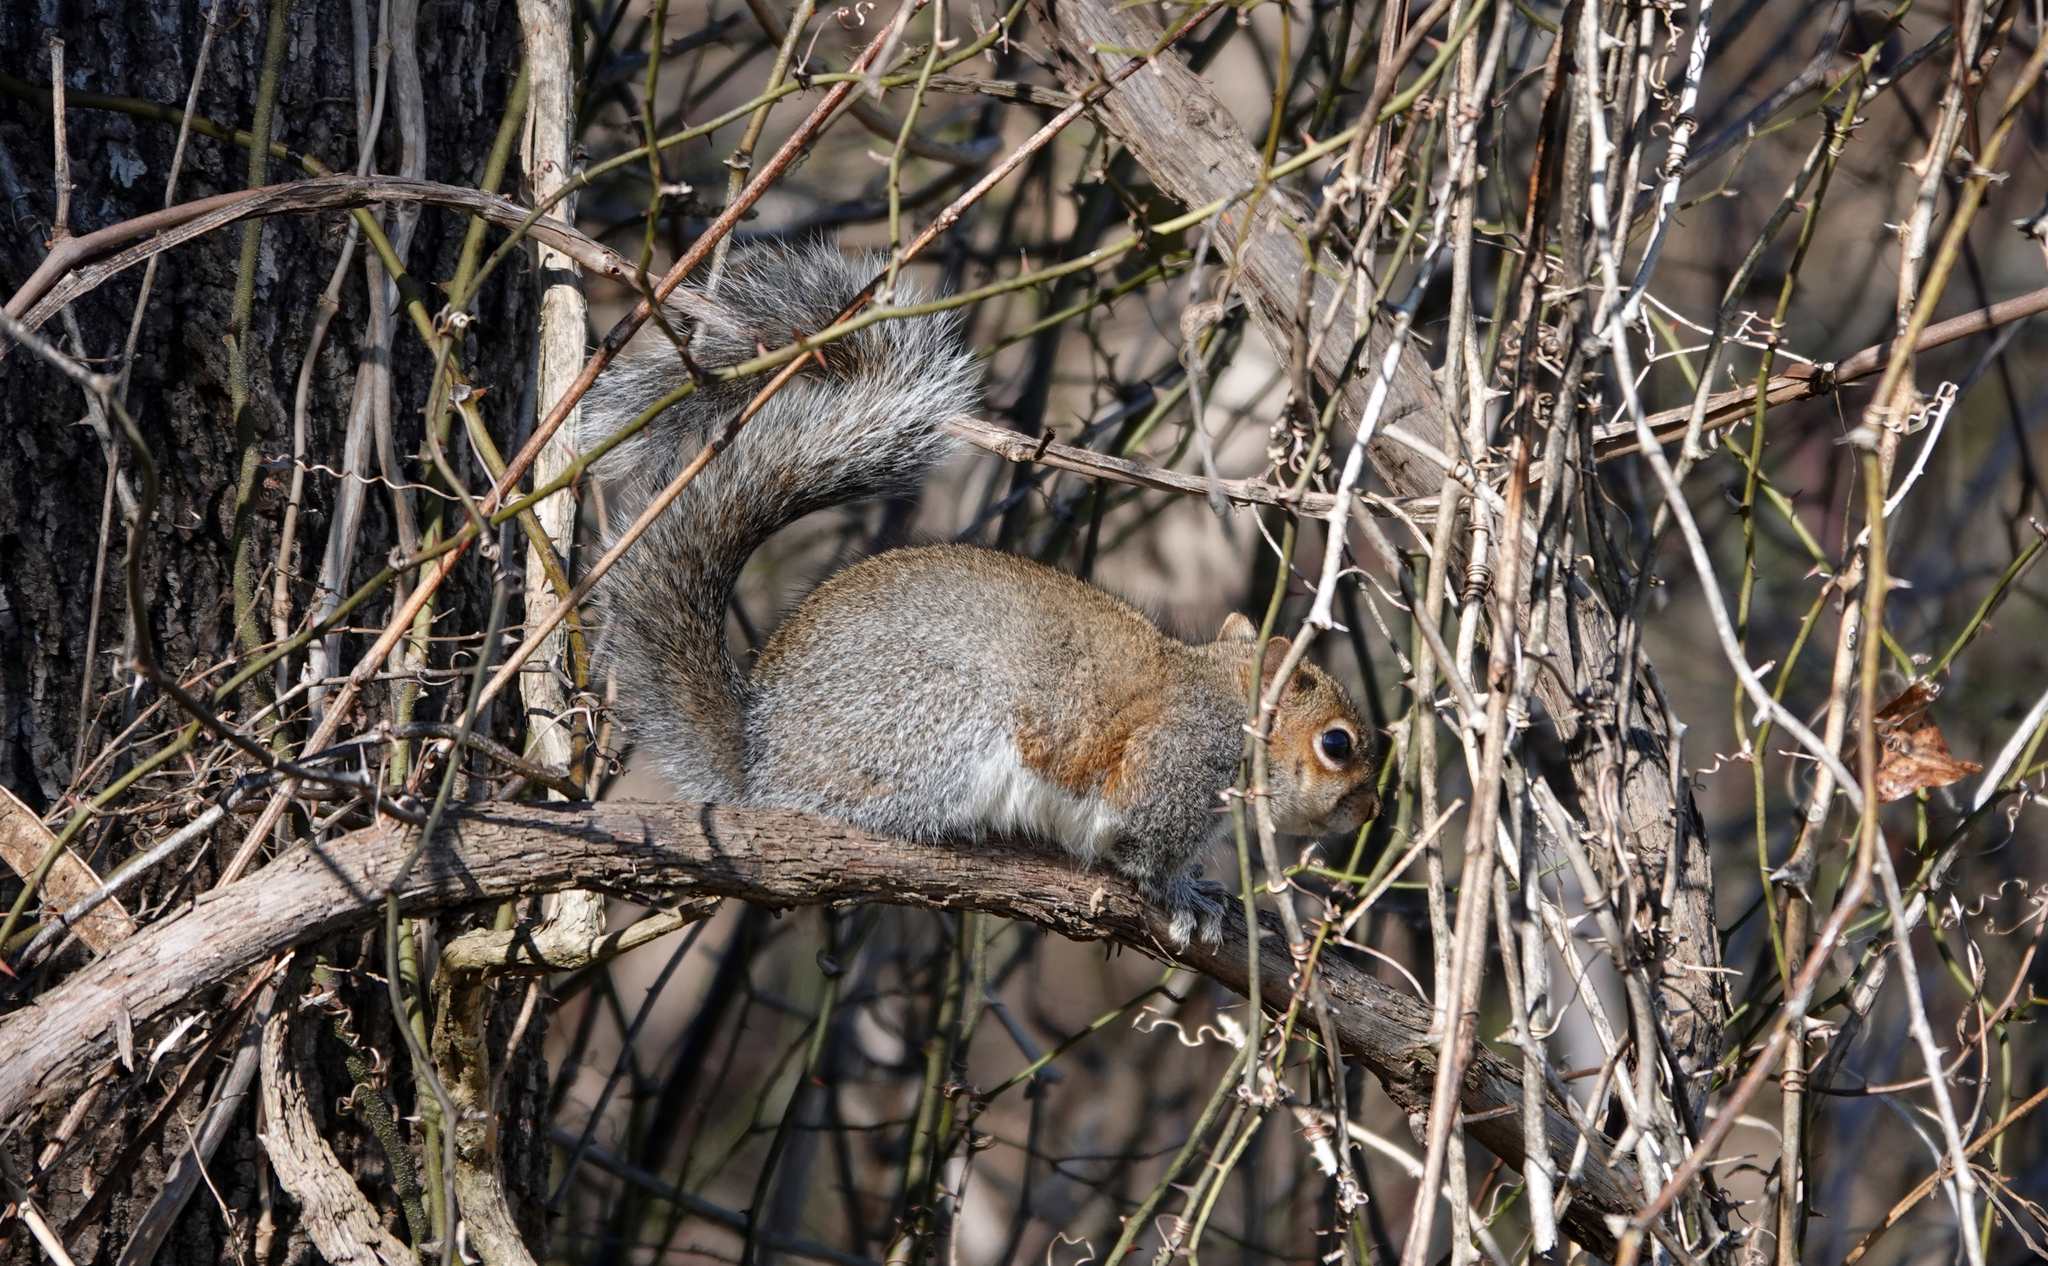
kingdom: Animalia
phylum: Chordata
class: Mammalia
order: Rodentia
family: Sciuridae
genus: Sciurus
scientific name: Sciurus carolinensis
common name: Eastern gray squirrel
